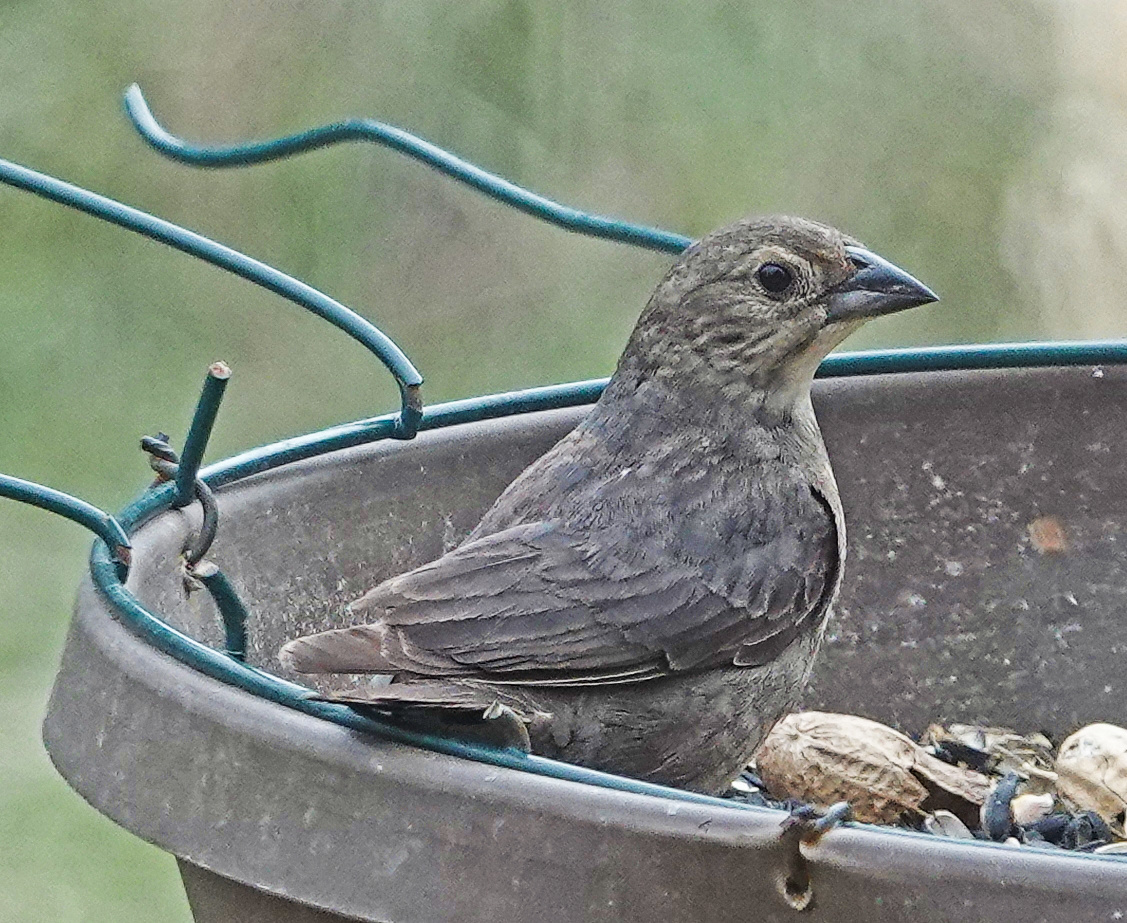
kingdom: Animalia
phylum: Chordata
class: Aves
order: Passeriformes
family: Icteridae
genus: Molothrus
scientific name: Molothrus ater
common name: Brown-headed cowbird
